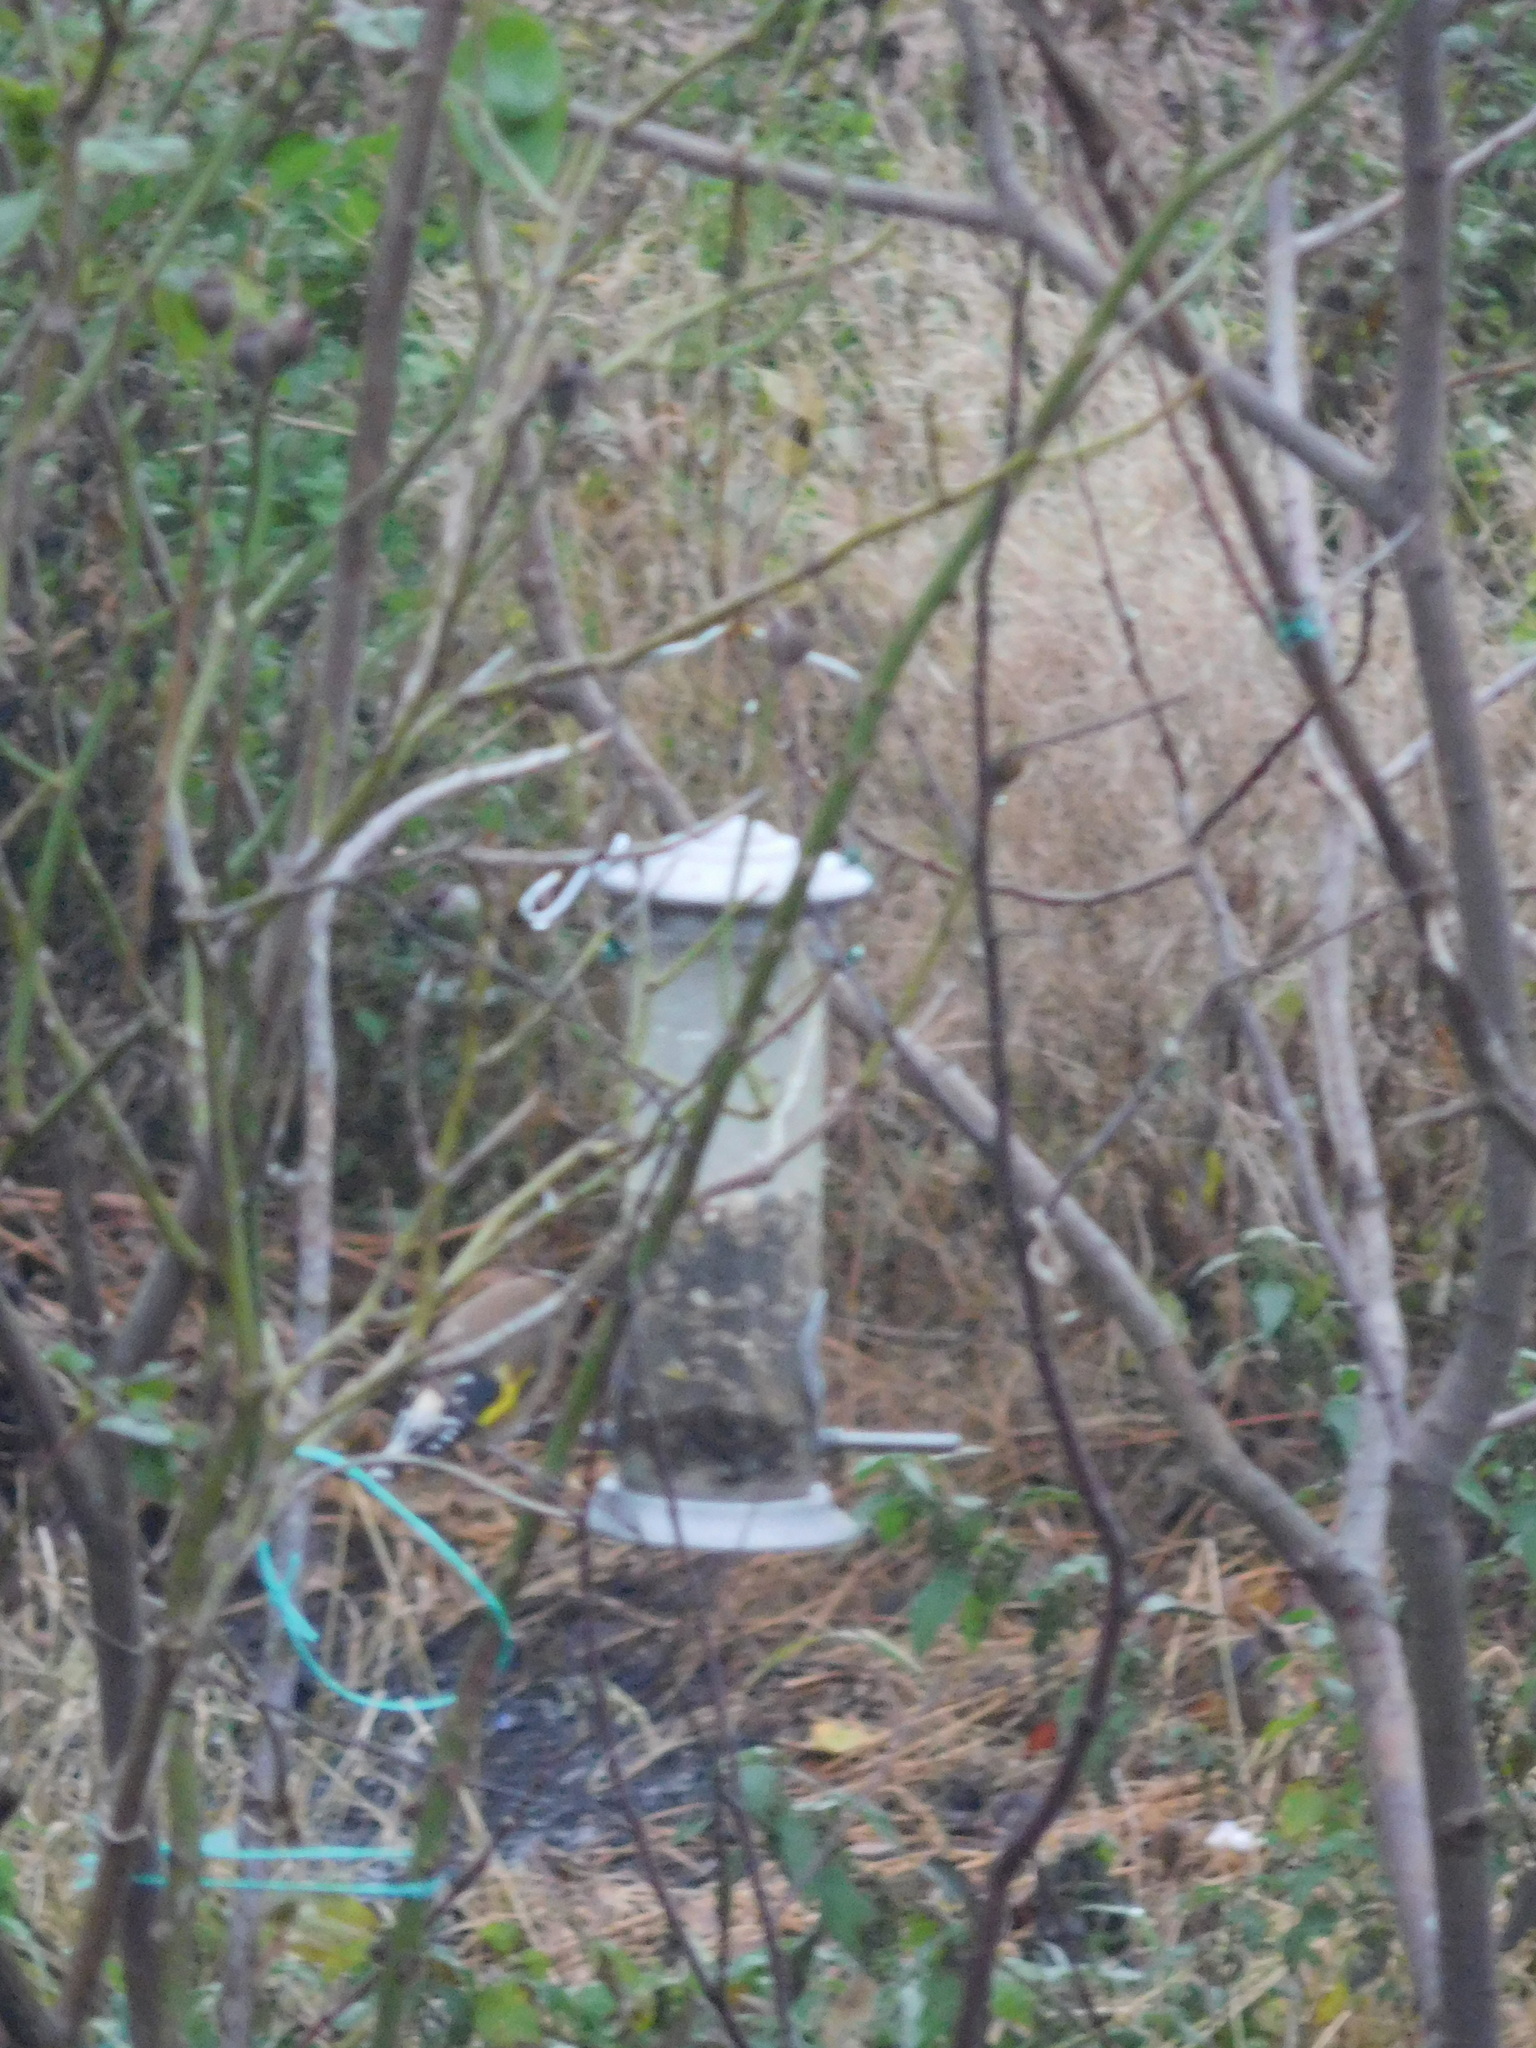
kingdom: Animalia
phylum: Chordata
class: Aves
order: Passeriformes
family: Fringillidae
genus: Carduelis
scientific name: Carduelis carduelis
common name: European goldfinch
